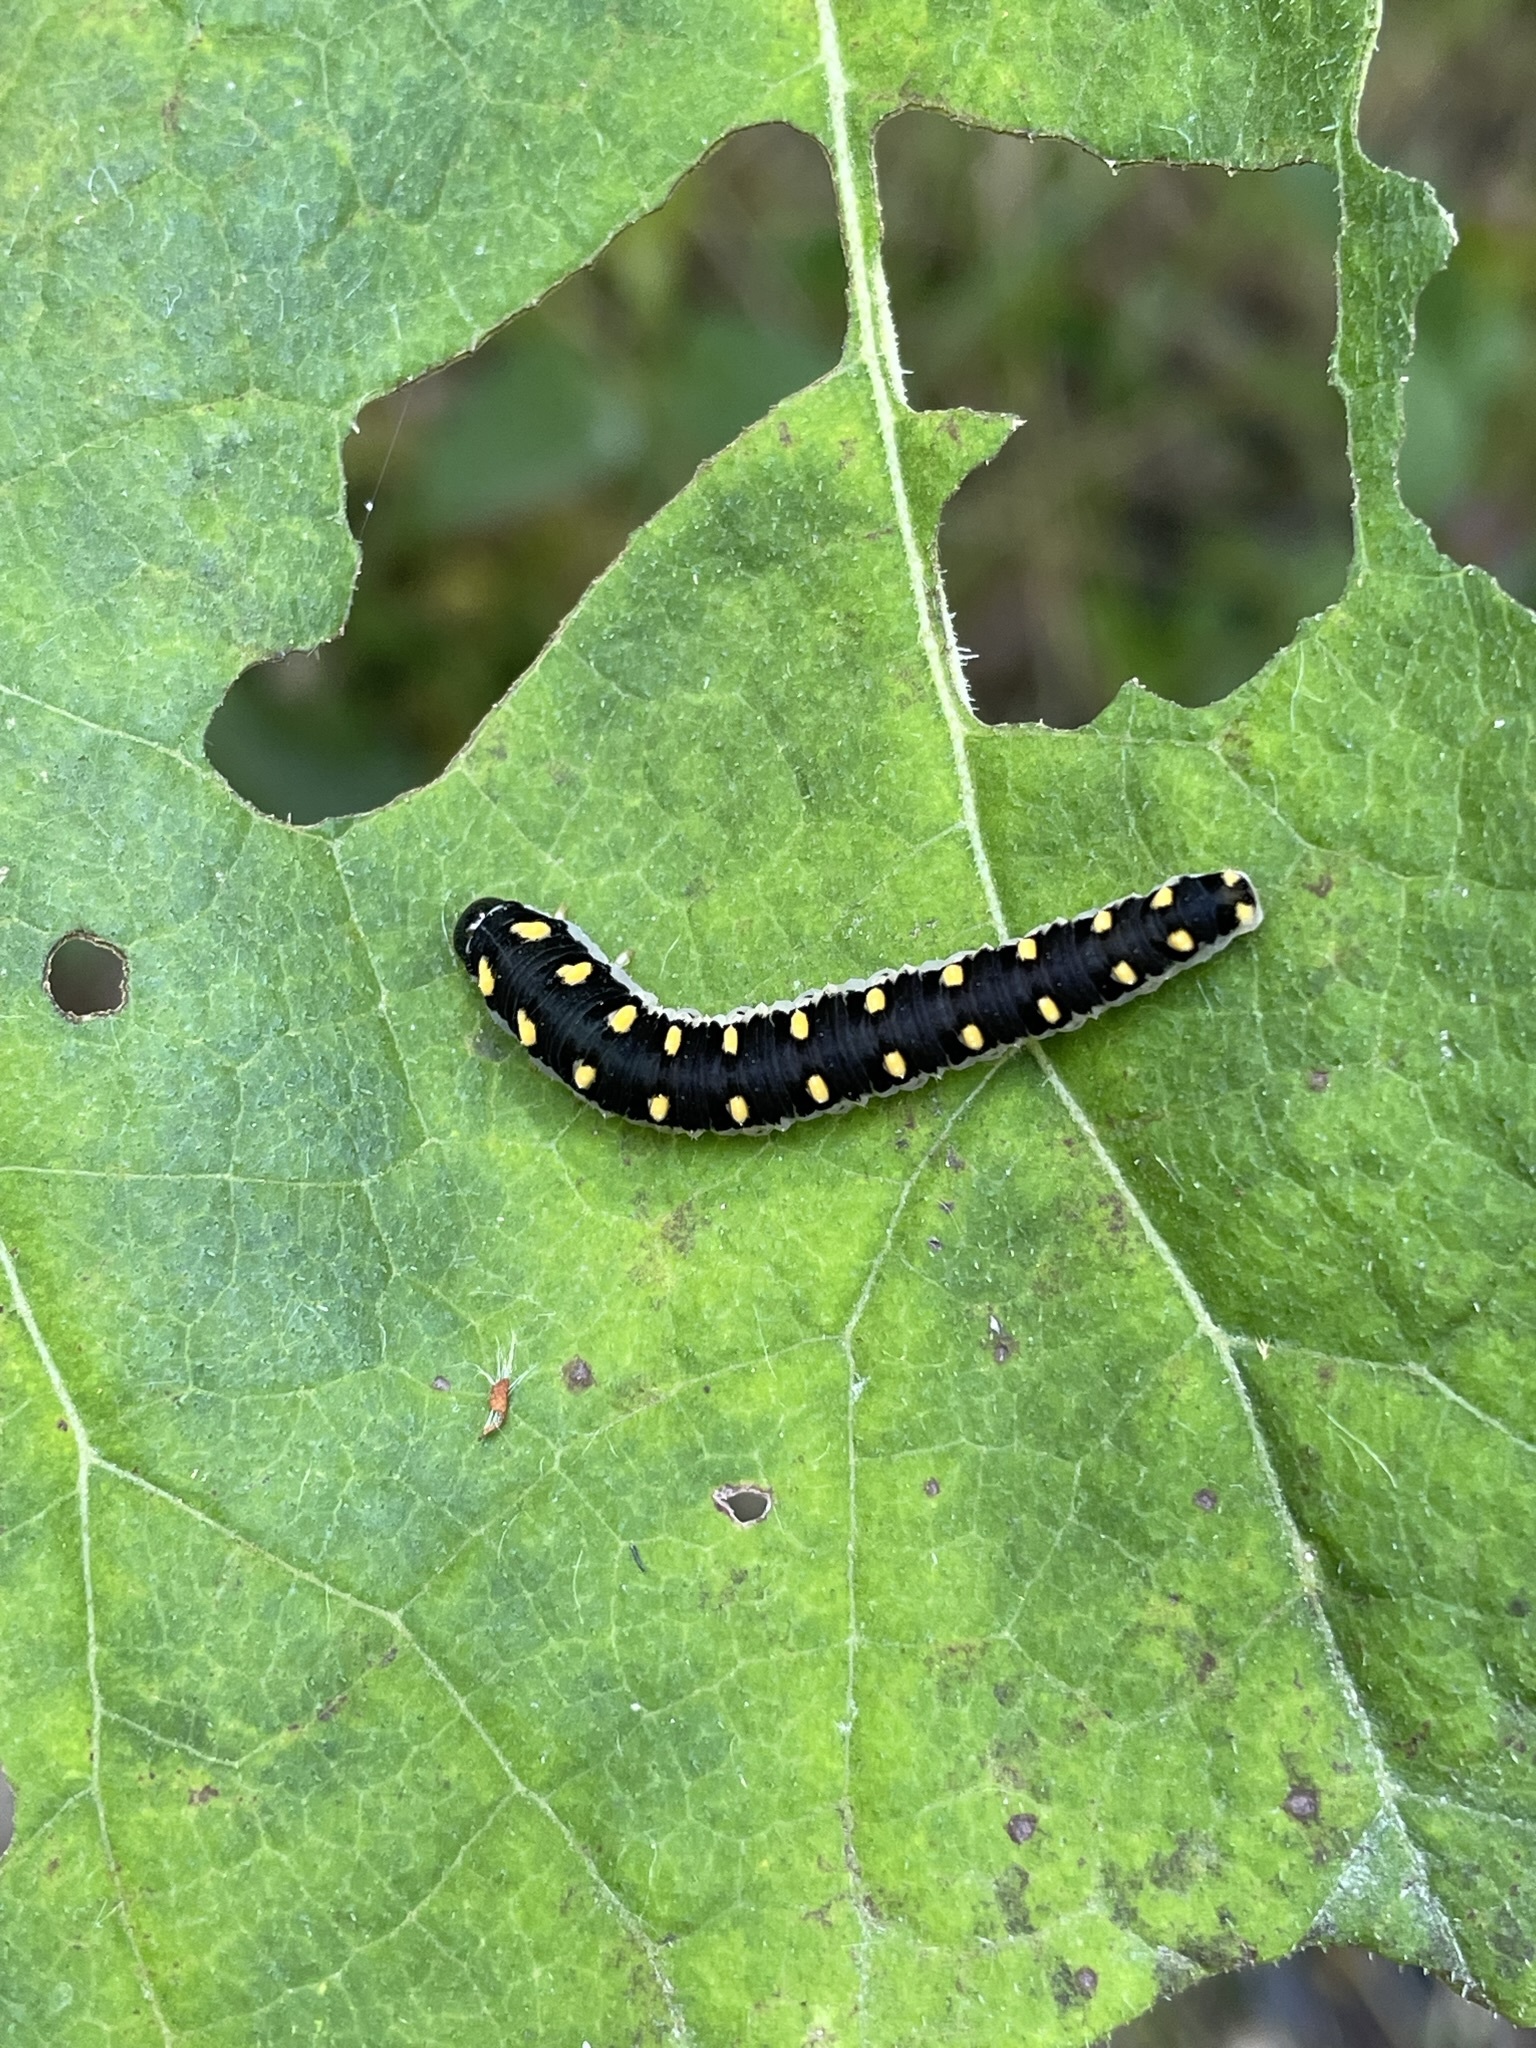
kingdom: Animalia
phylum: Arthropoda
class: Insecta
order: Hymenoptera
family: Tenthredinidae
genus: Tenthredo
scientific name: Tenthredo mandibularis
